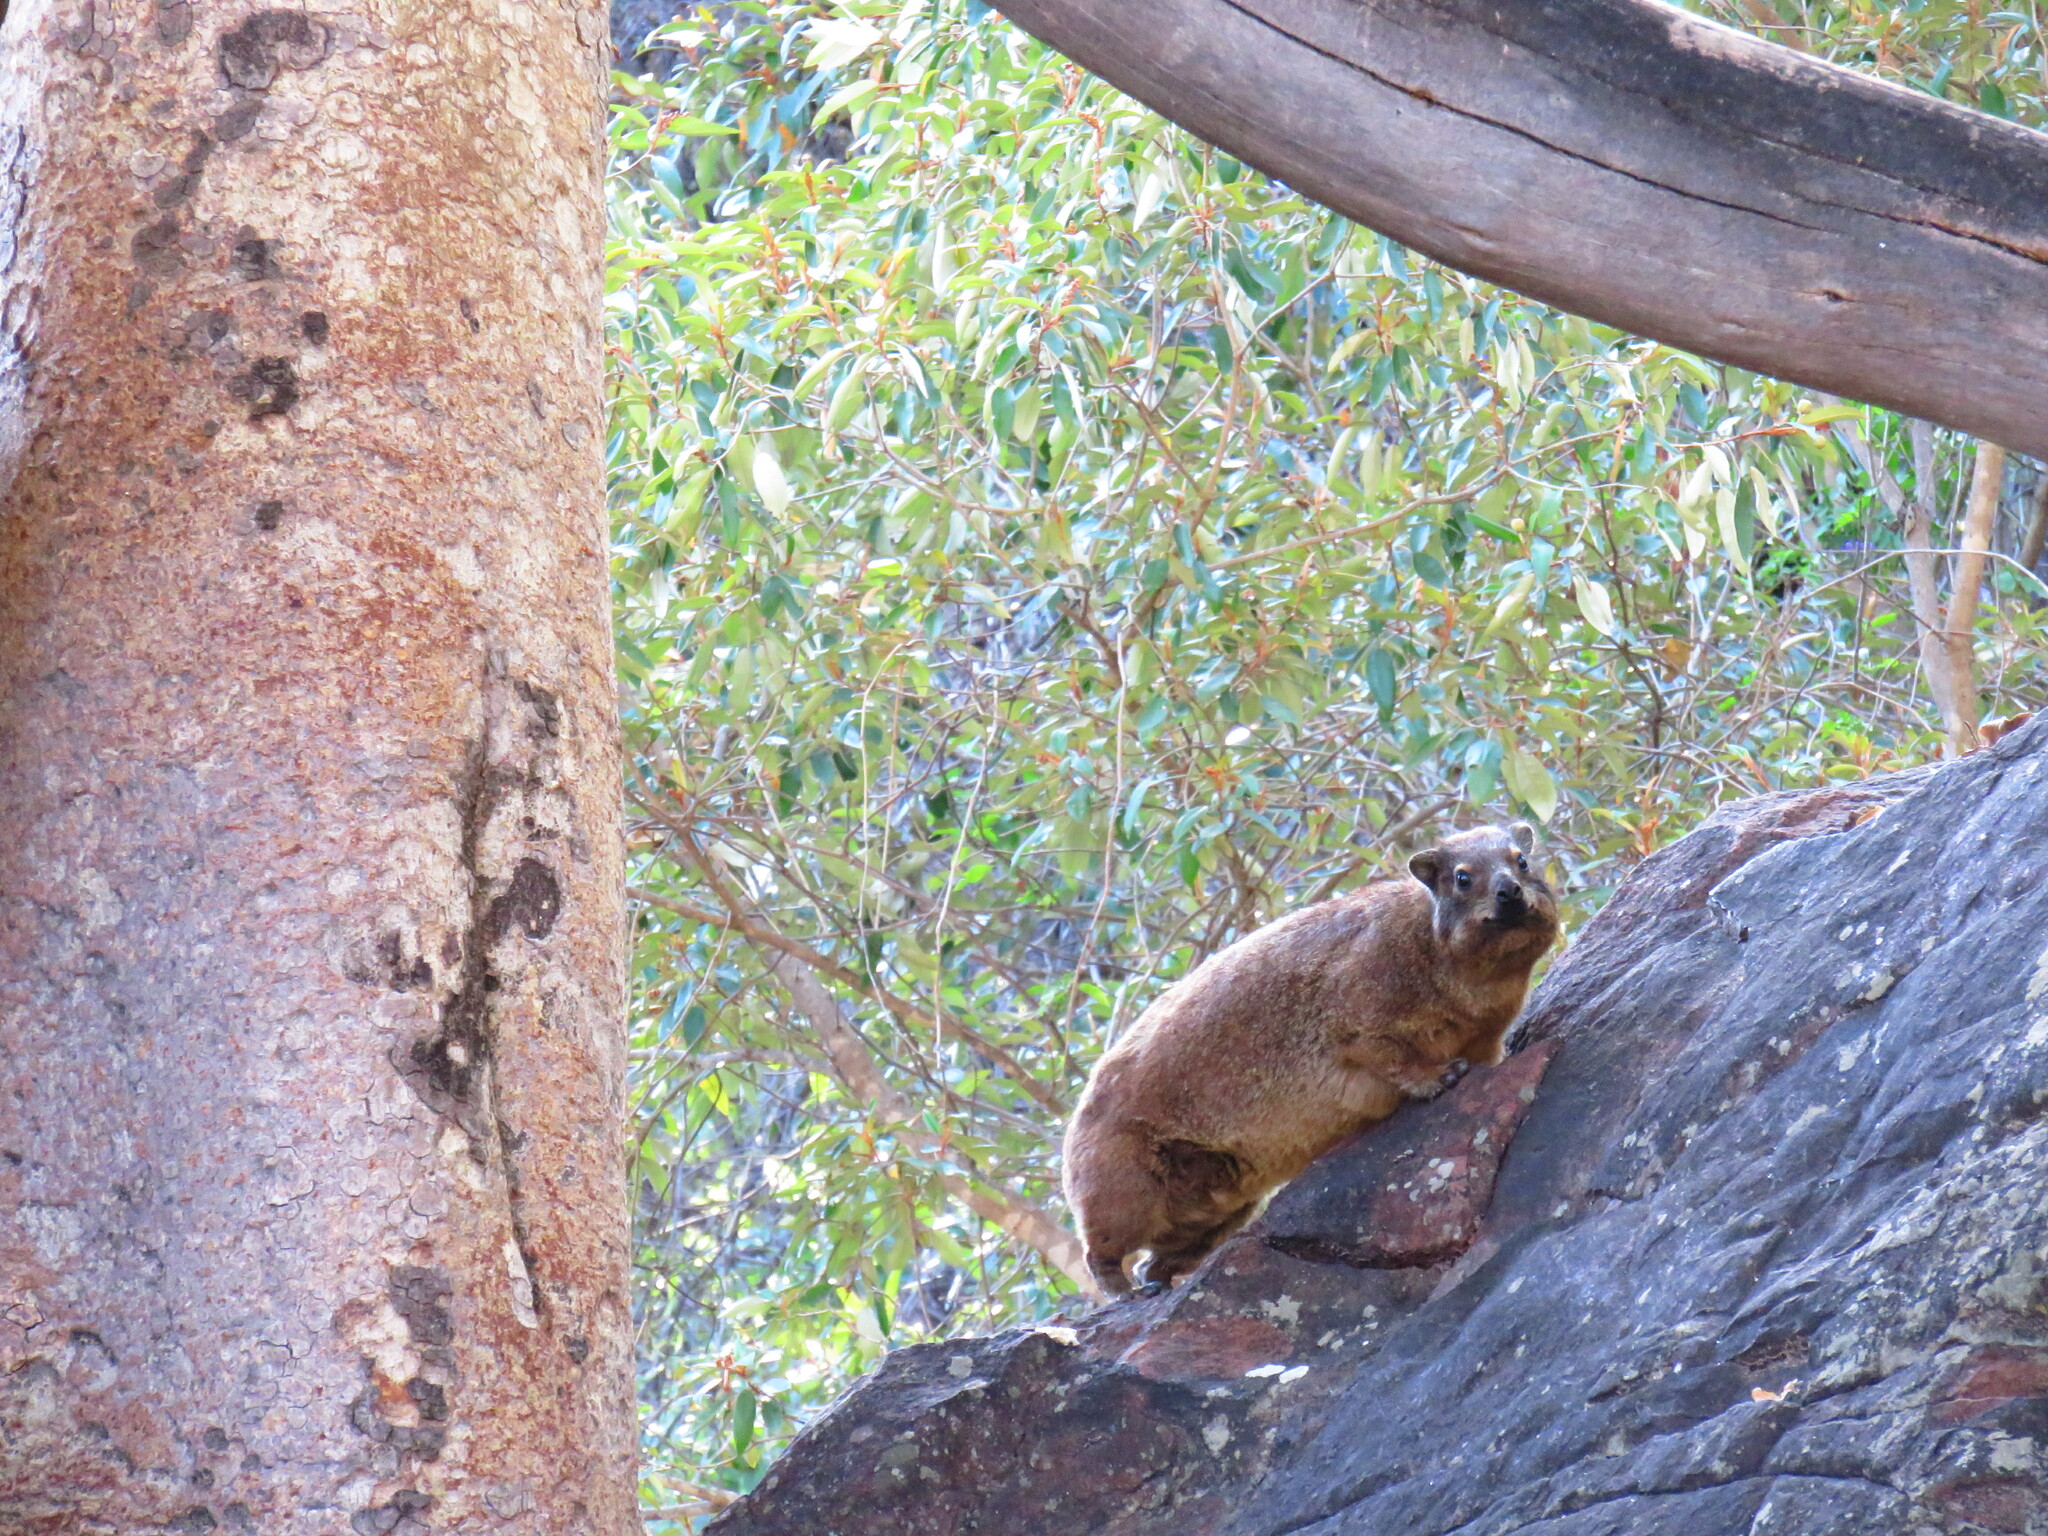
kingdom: Animalia
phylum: Chordata
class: Mammalia
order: Hyracoidea
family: Procaviidae
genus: Procavia
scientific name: Procavia capensis
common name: Rock hyrax
